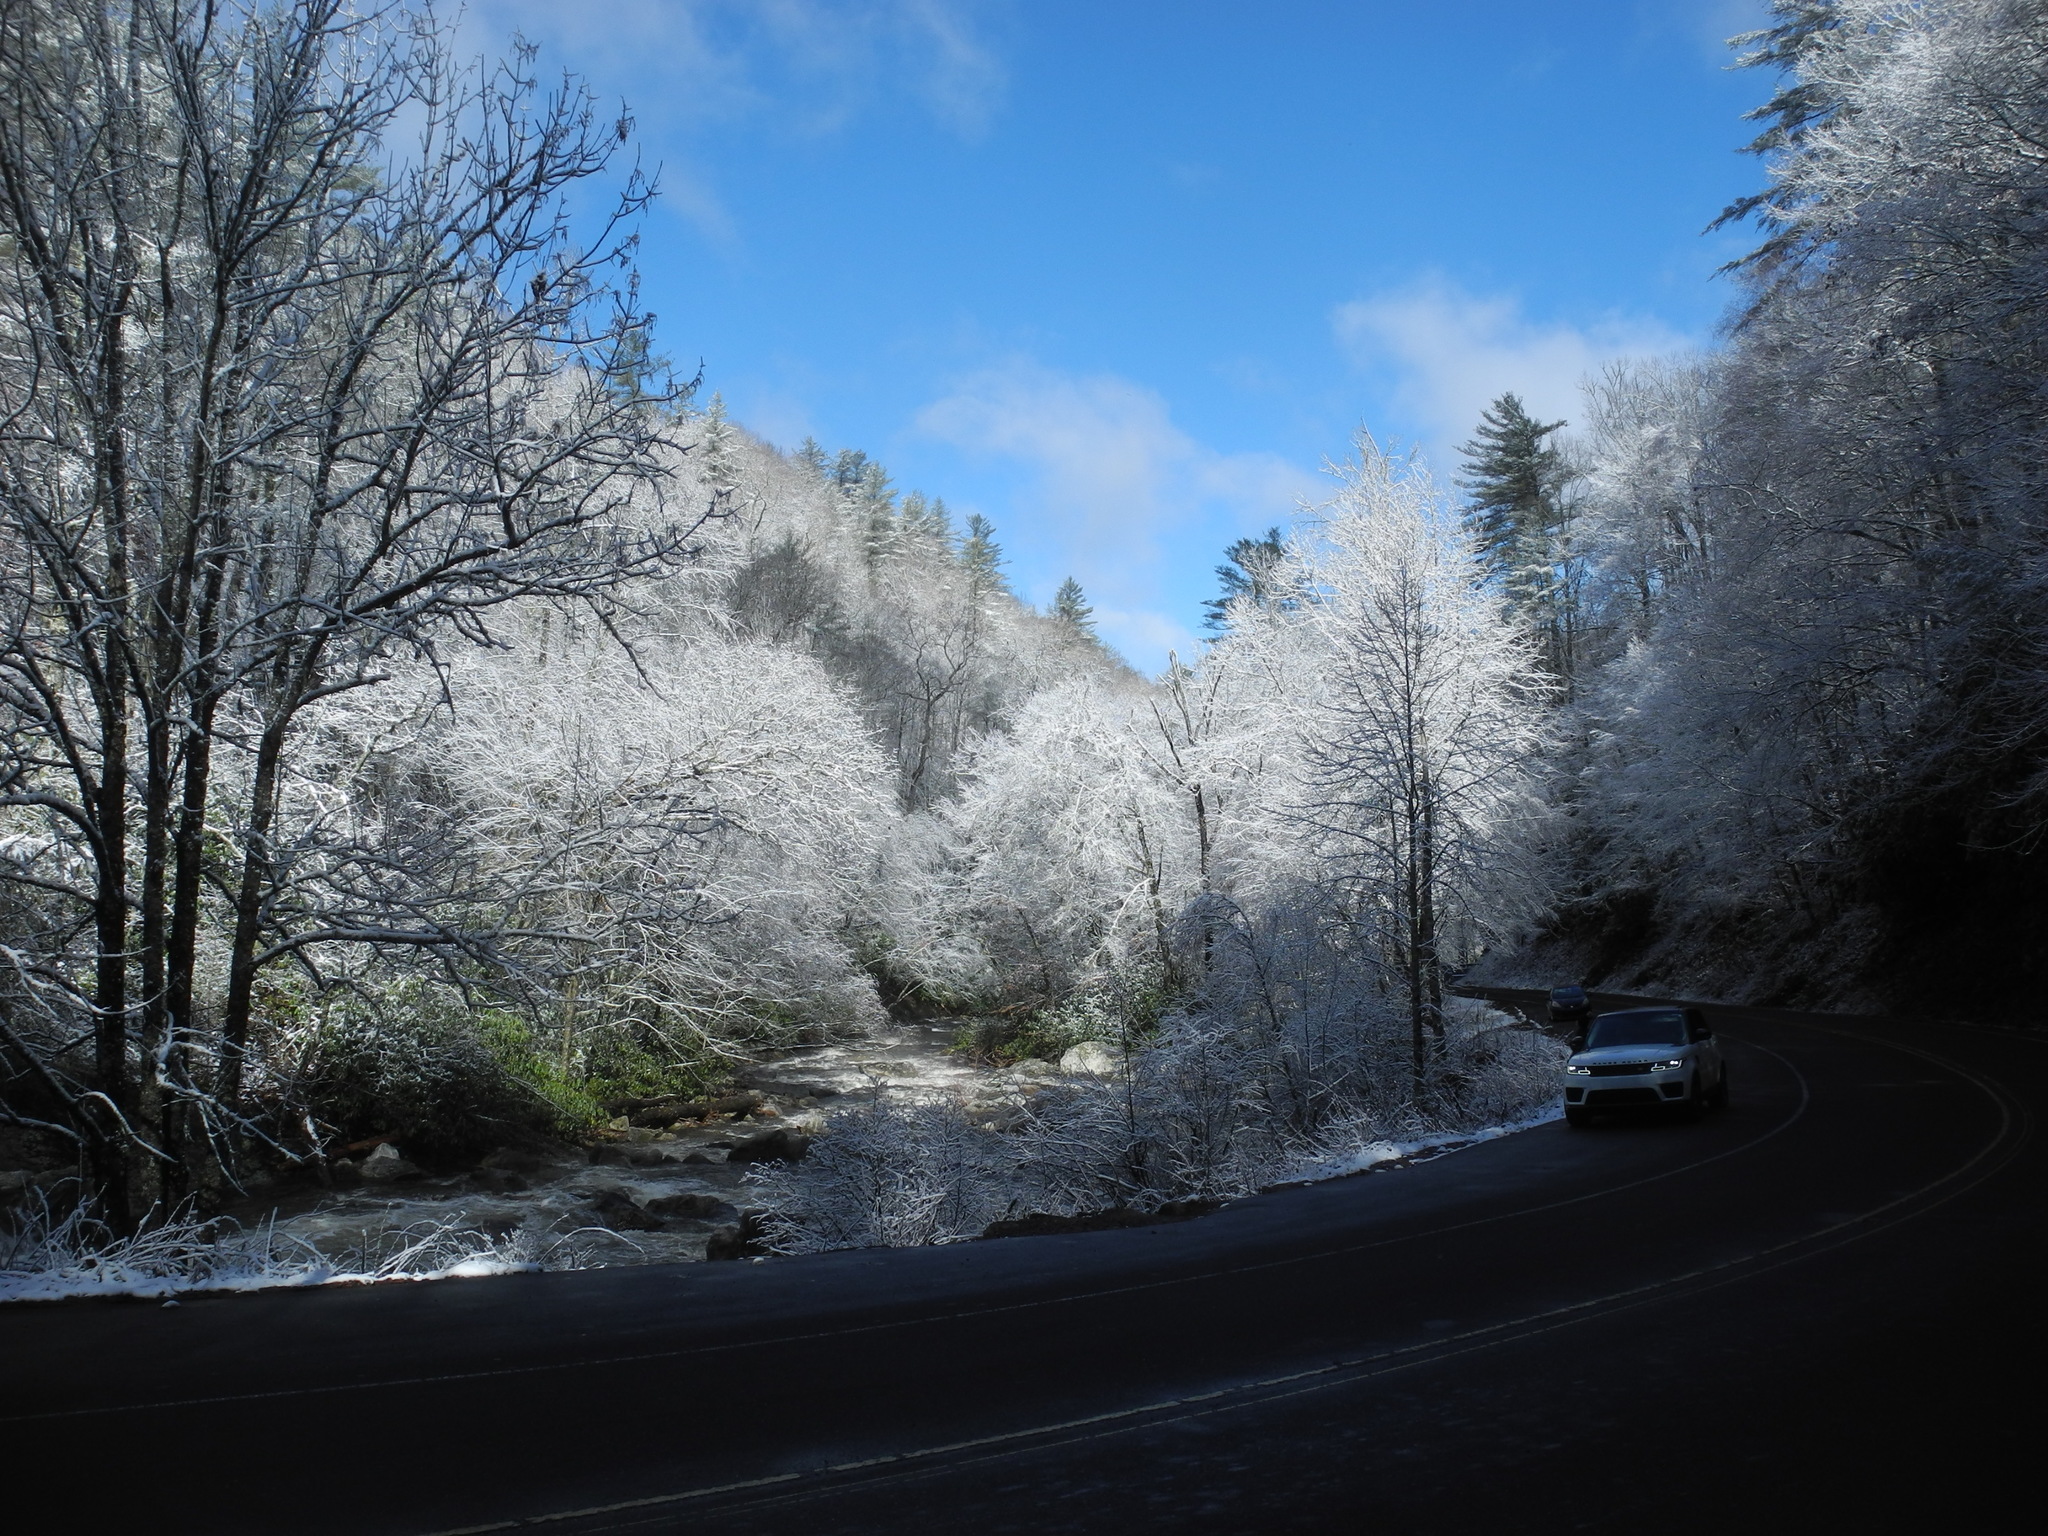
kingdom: Plantae
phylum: Tracheophyta
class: Polypodiopsida
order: Polypodiales
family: Dryopteridaceae
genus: Dryopteris
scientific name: Dryopteris marginalis
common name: Marginal wood fern
